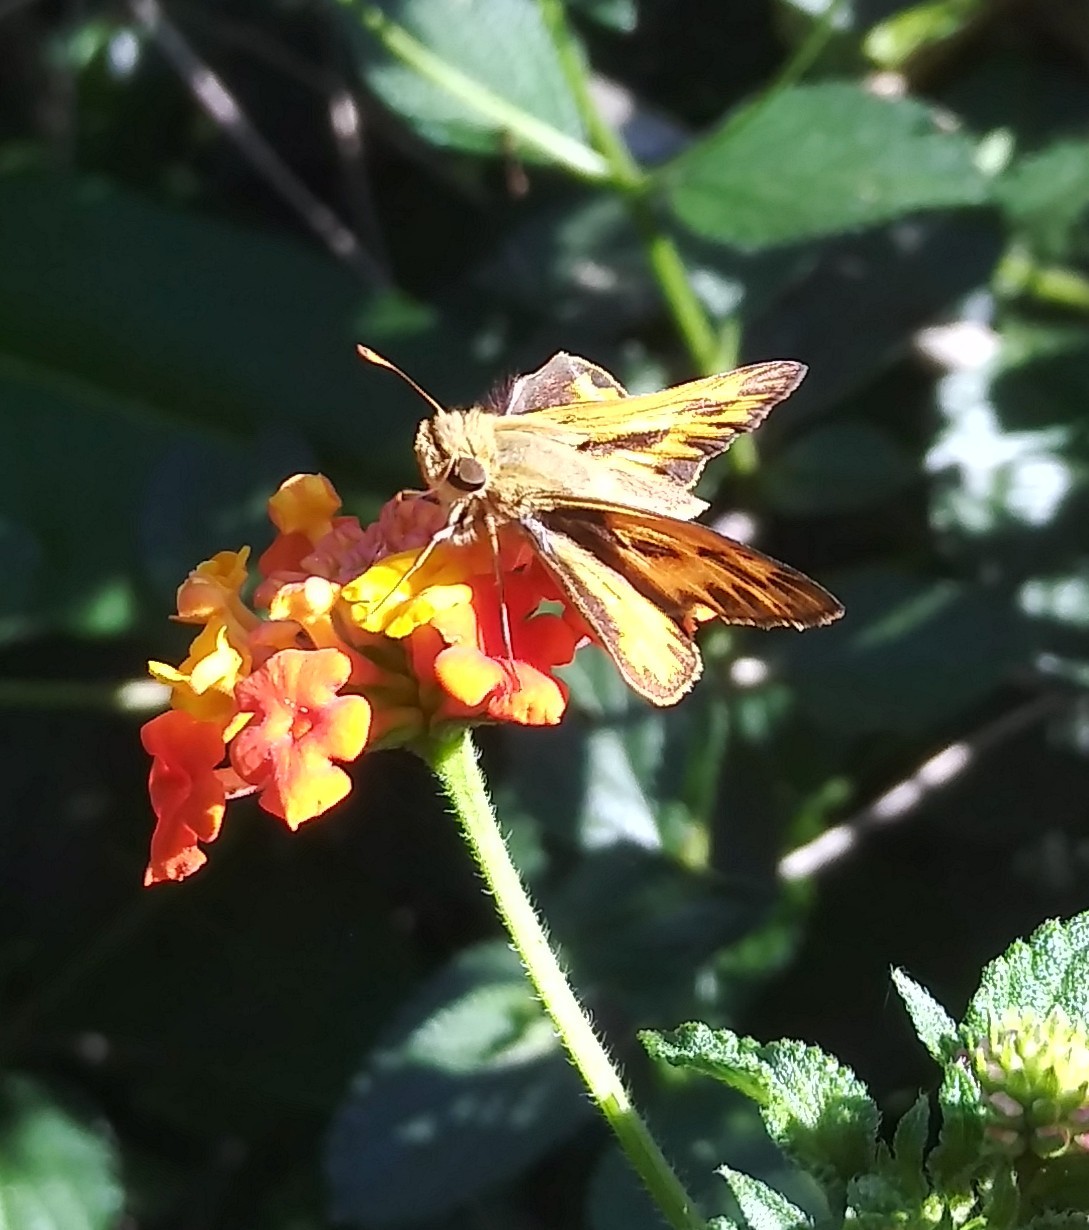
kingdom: Animalia
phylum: Arthropoda
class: Insecta
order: Lepidoptera
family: Hesperiidae
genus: Hylephila
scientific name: Hylephila phyleus
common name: Fiery skipper
